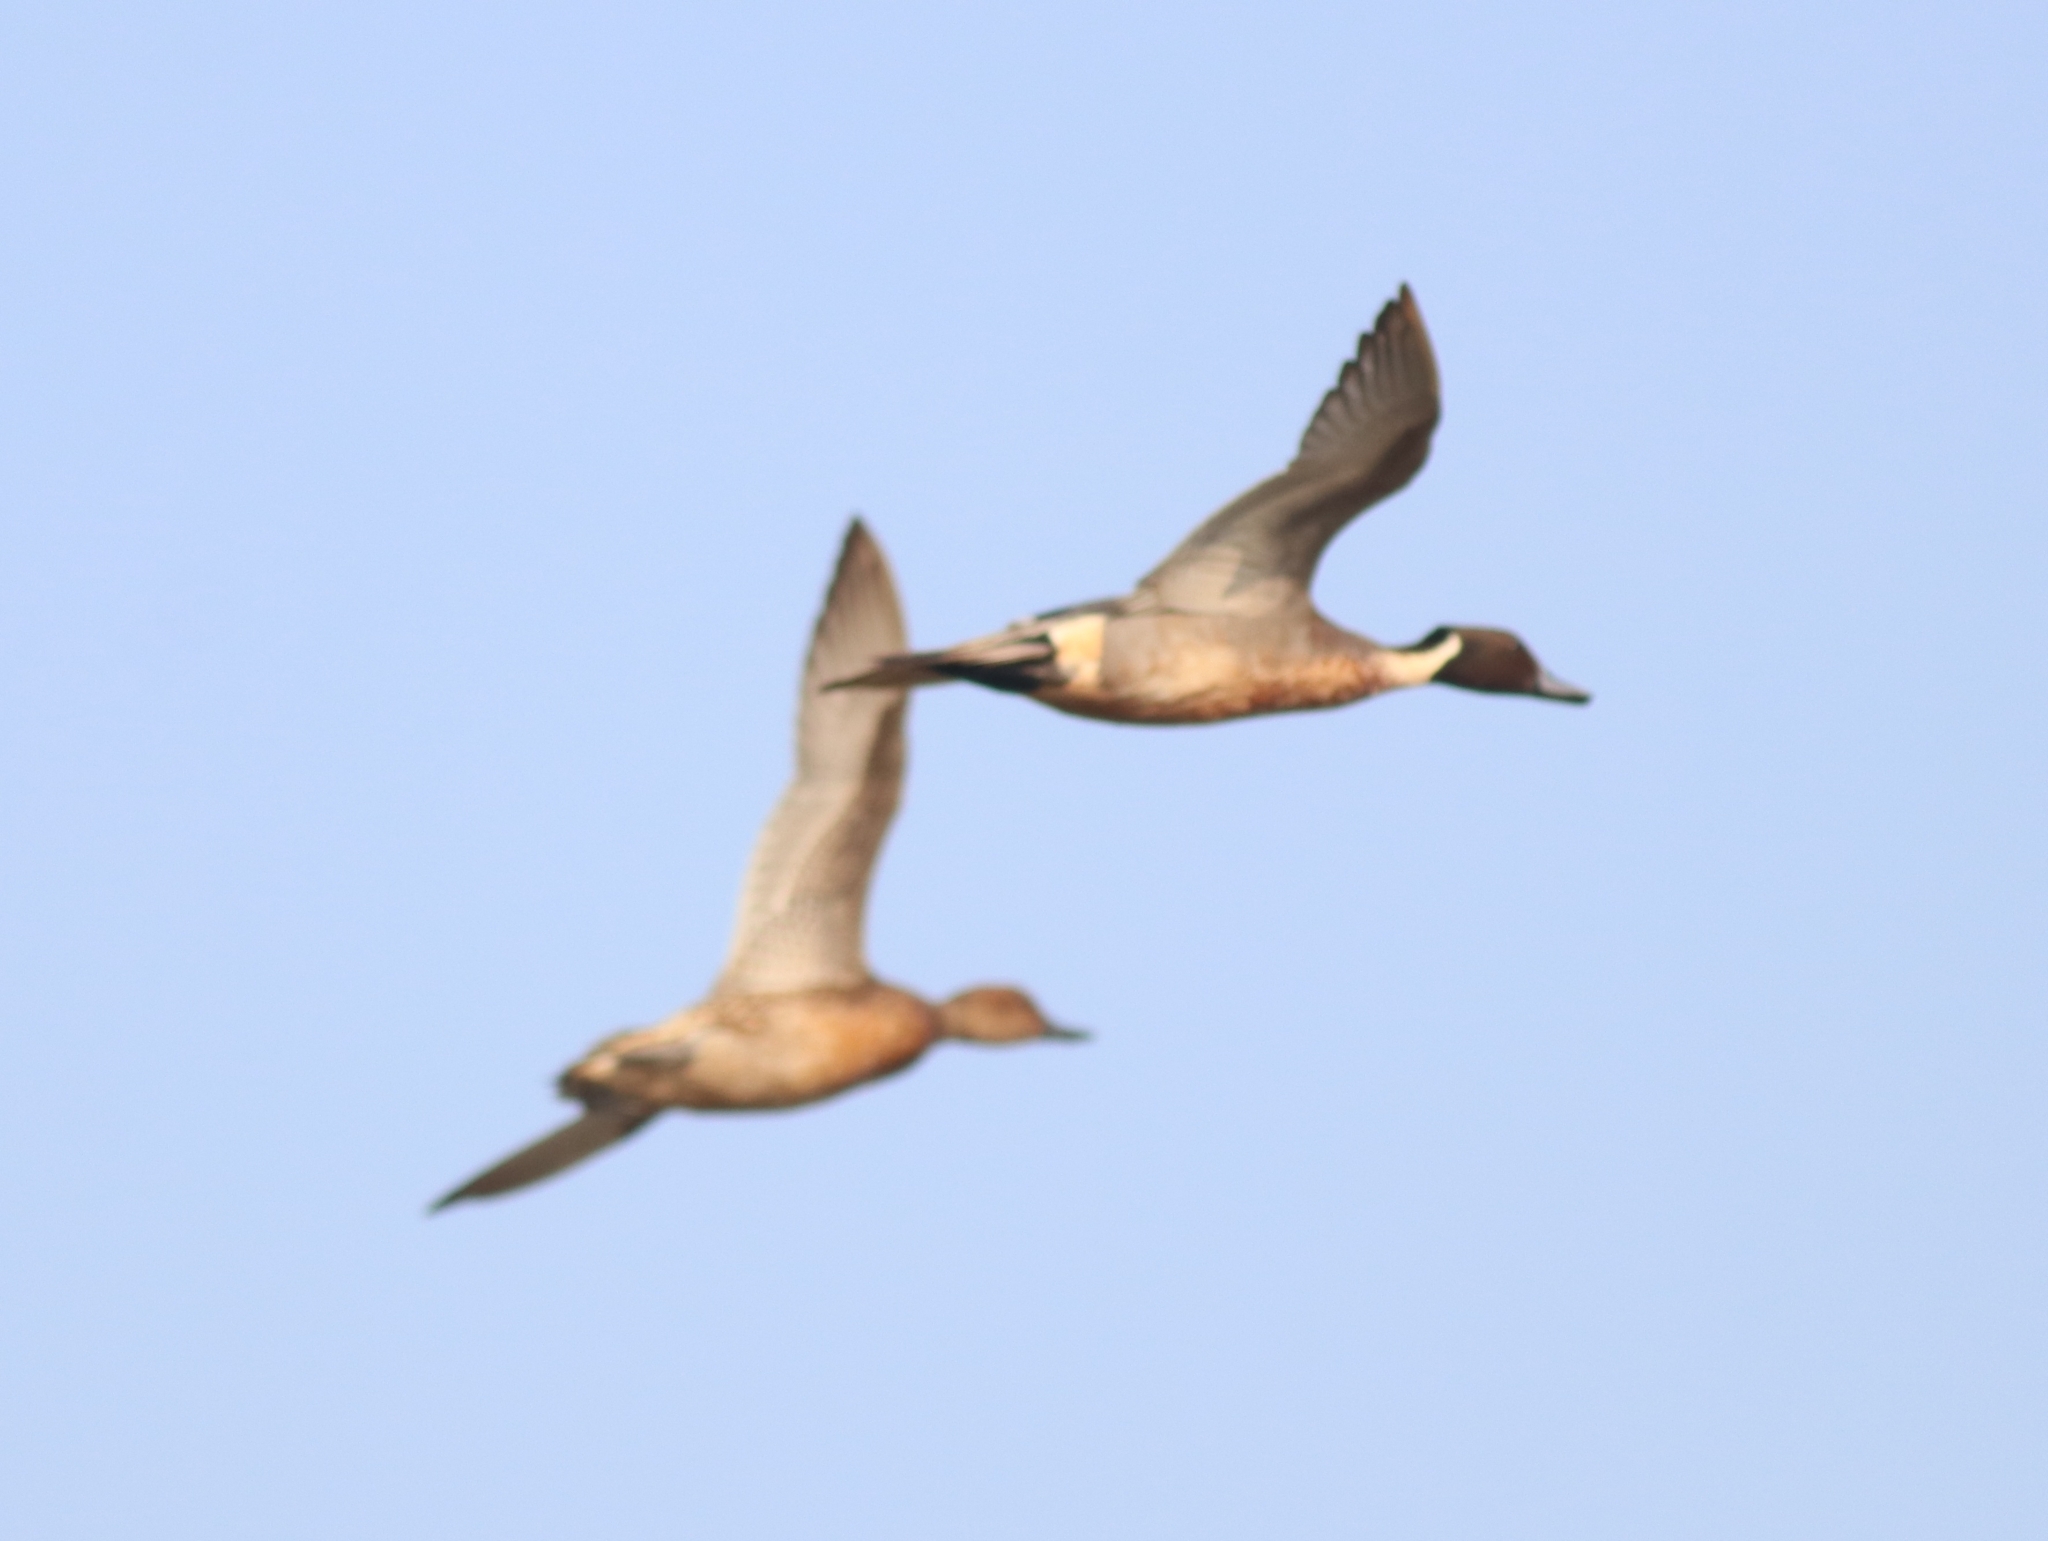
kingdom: Animalia
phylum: Chordata
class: Aves
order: Anseriformes
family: Anatidae
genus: Anas
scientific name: Anas acuta
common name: Northern pintail
